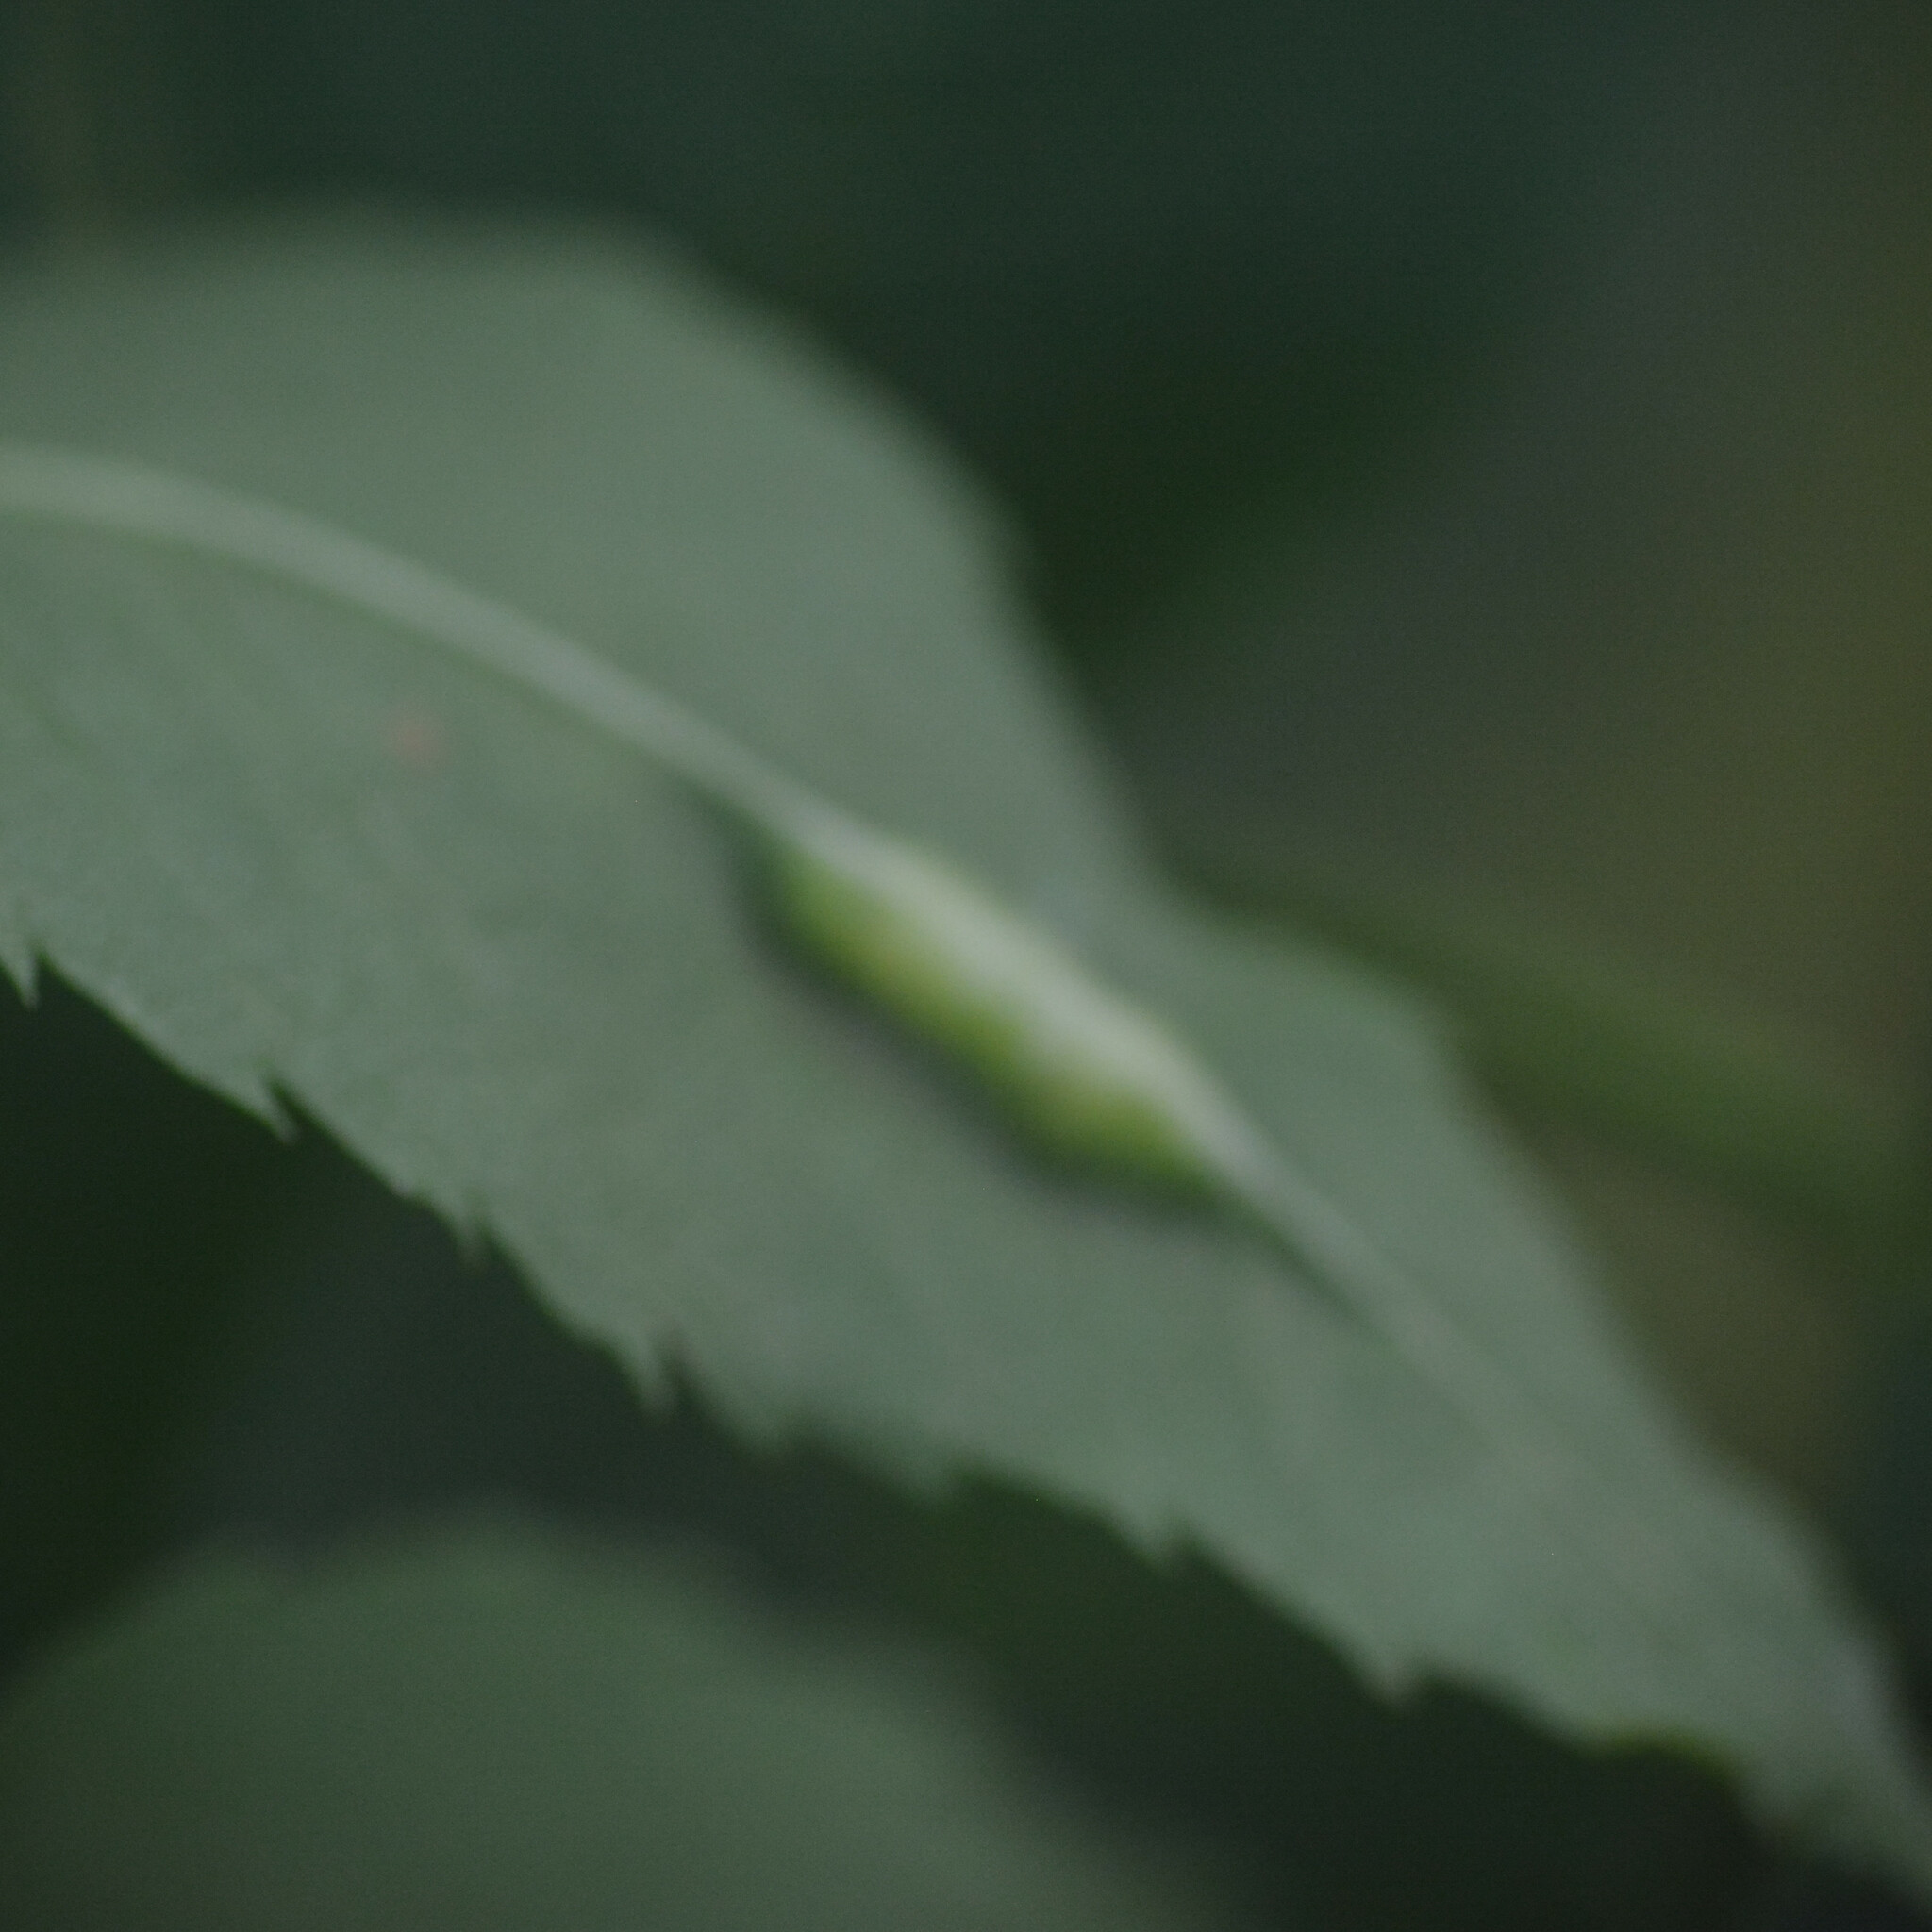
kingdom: Animalia
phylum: Arthropoda
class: Insecta
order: Diptera
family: Cecidomyiidae
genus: Dasineura
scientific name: Dasineura fraxini
